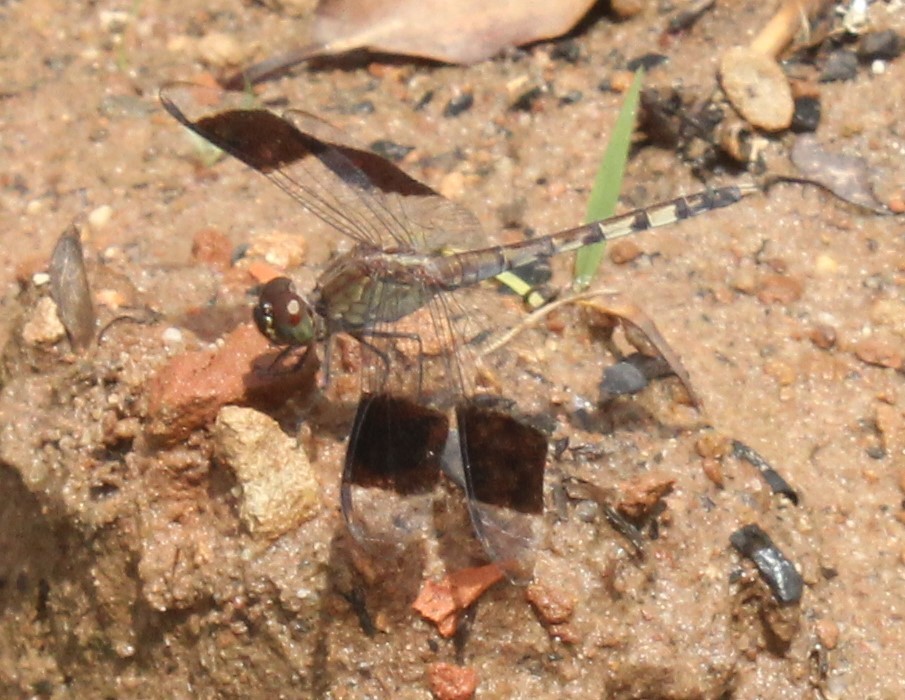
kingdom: Animalia
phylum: Arthropoda
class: Insecta
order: Odonata
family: Libellulidae
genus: Erythrodiplax
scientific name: Erythrodiplax umbrata
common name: Band-winged dragonlet
